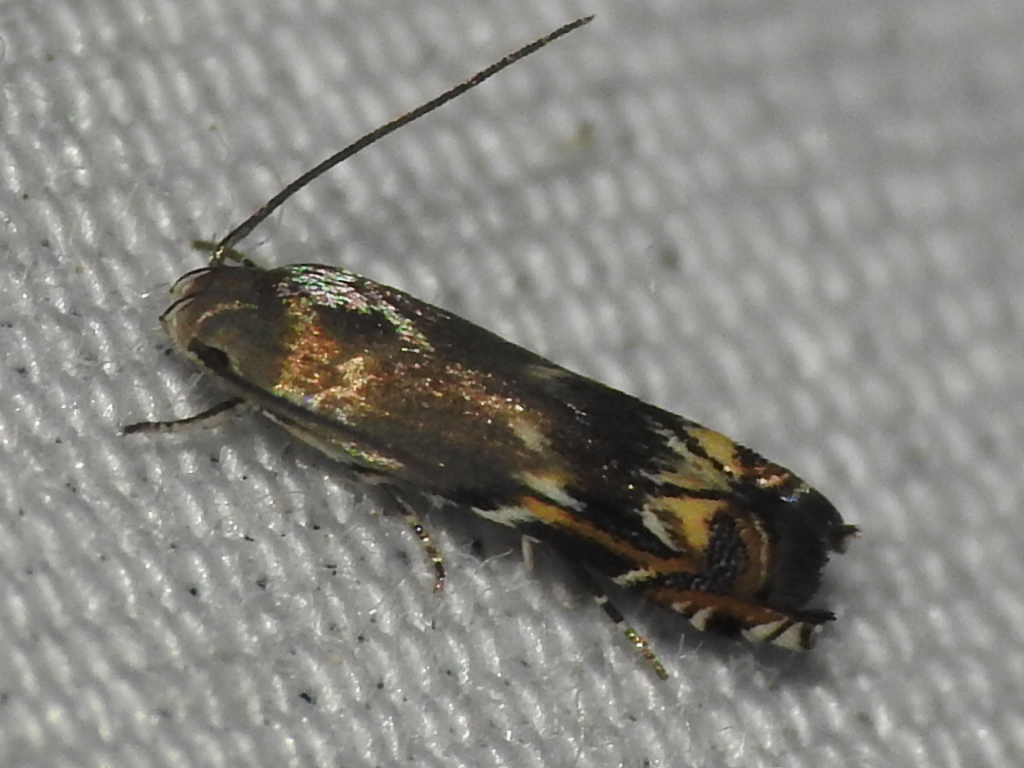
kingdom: Animalia
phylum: Arthropoda
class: Insecta
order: Lepidoptera
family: Gelechiidae
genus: Calliprora
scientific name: Calliprora sexstrigella
